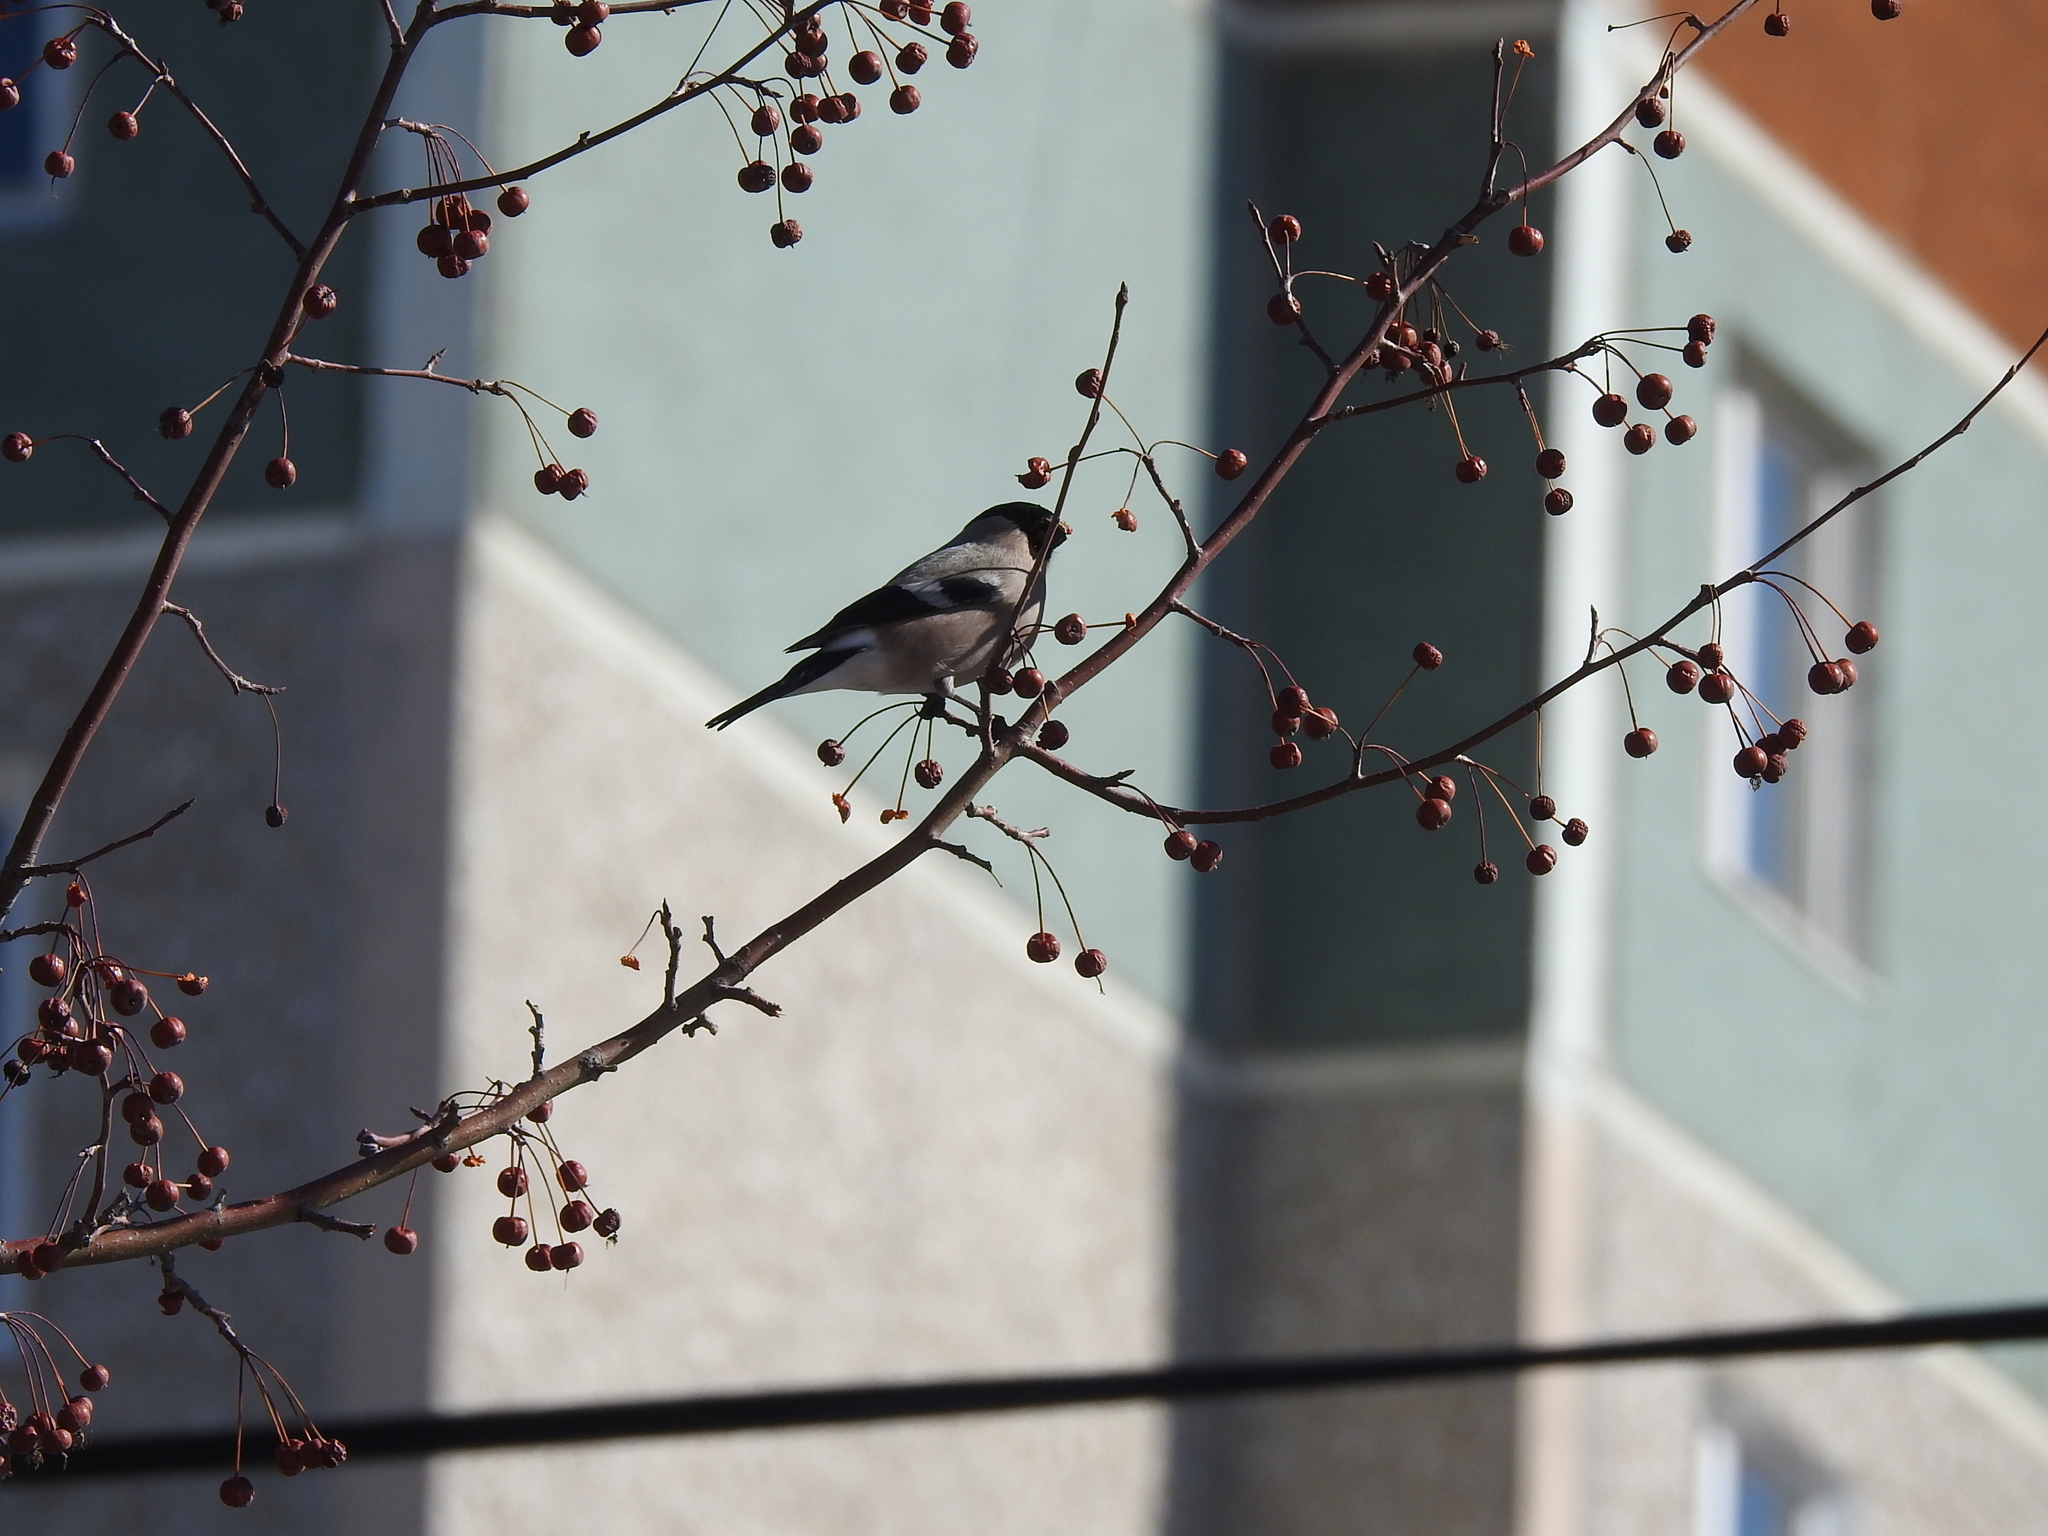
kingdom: Animalia
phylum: Chordata
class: Aves
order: Passeriformes
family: Fringillidae
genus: Pyrrhula
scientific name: Pyrrhula pyrrhula
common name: Eurasian bullfinch
